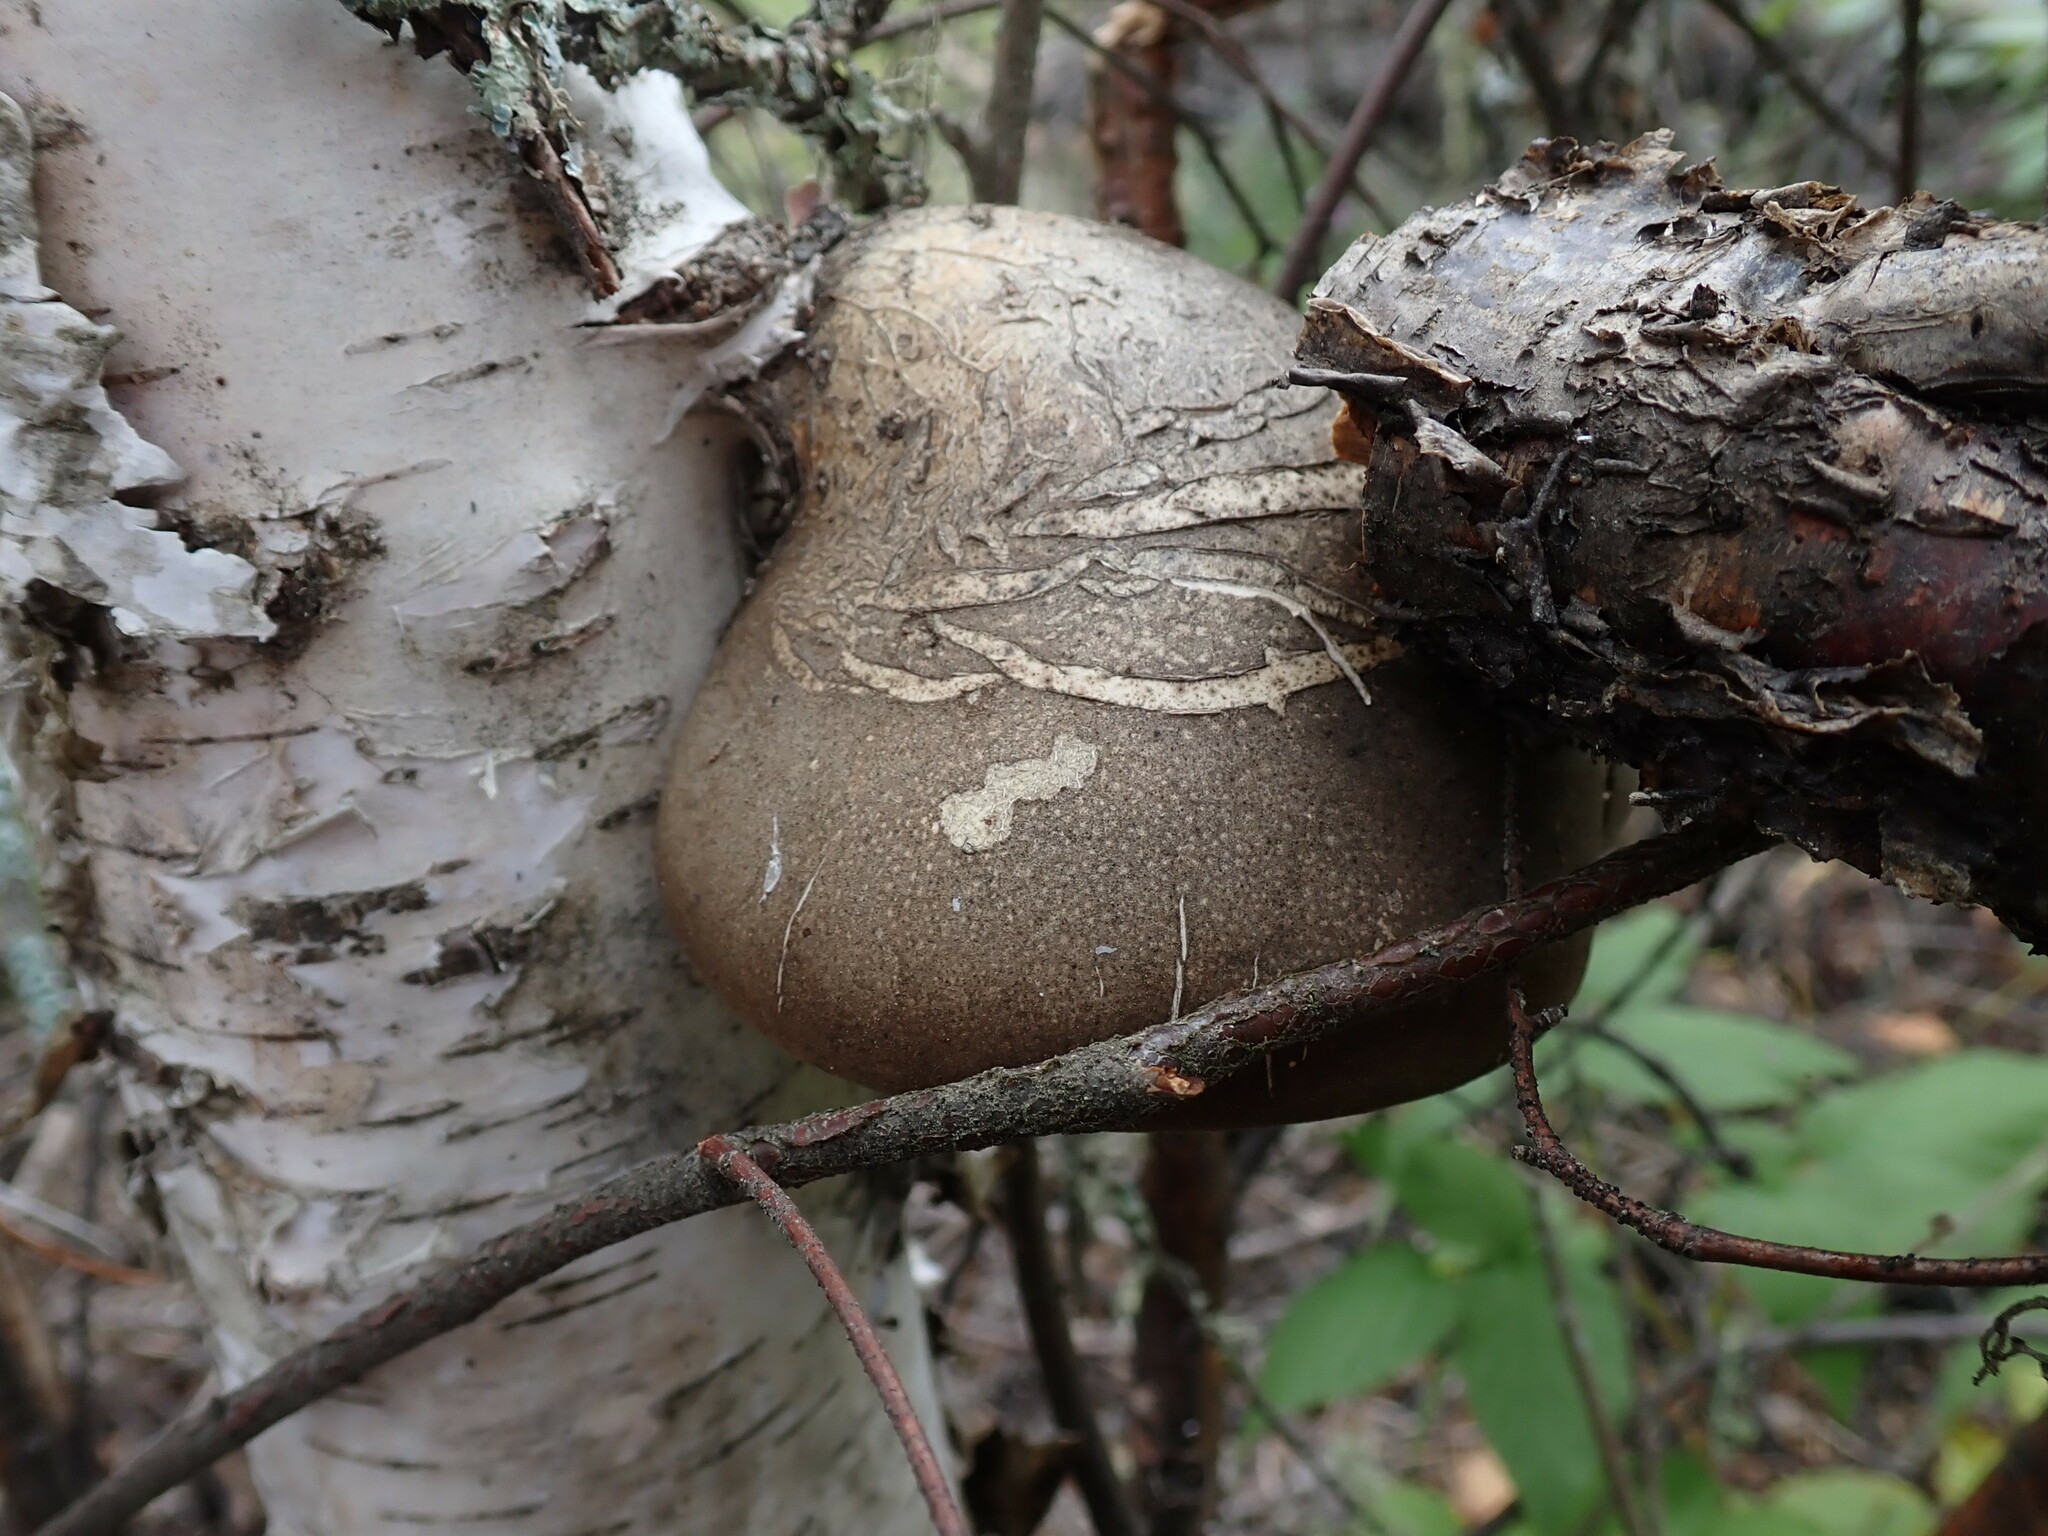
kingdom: Fungi
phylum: Basidiomycota
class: Agaricomycetes
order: Polyporales
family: Fomitopsidaceae
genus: Fomitopsis
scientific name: Fomitopsis betulina
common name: Birch polypore
